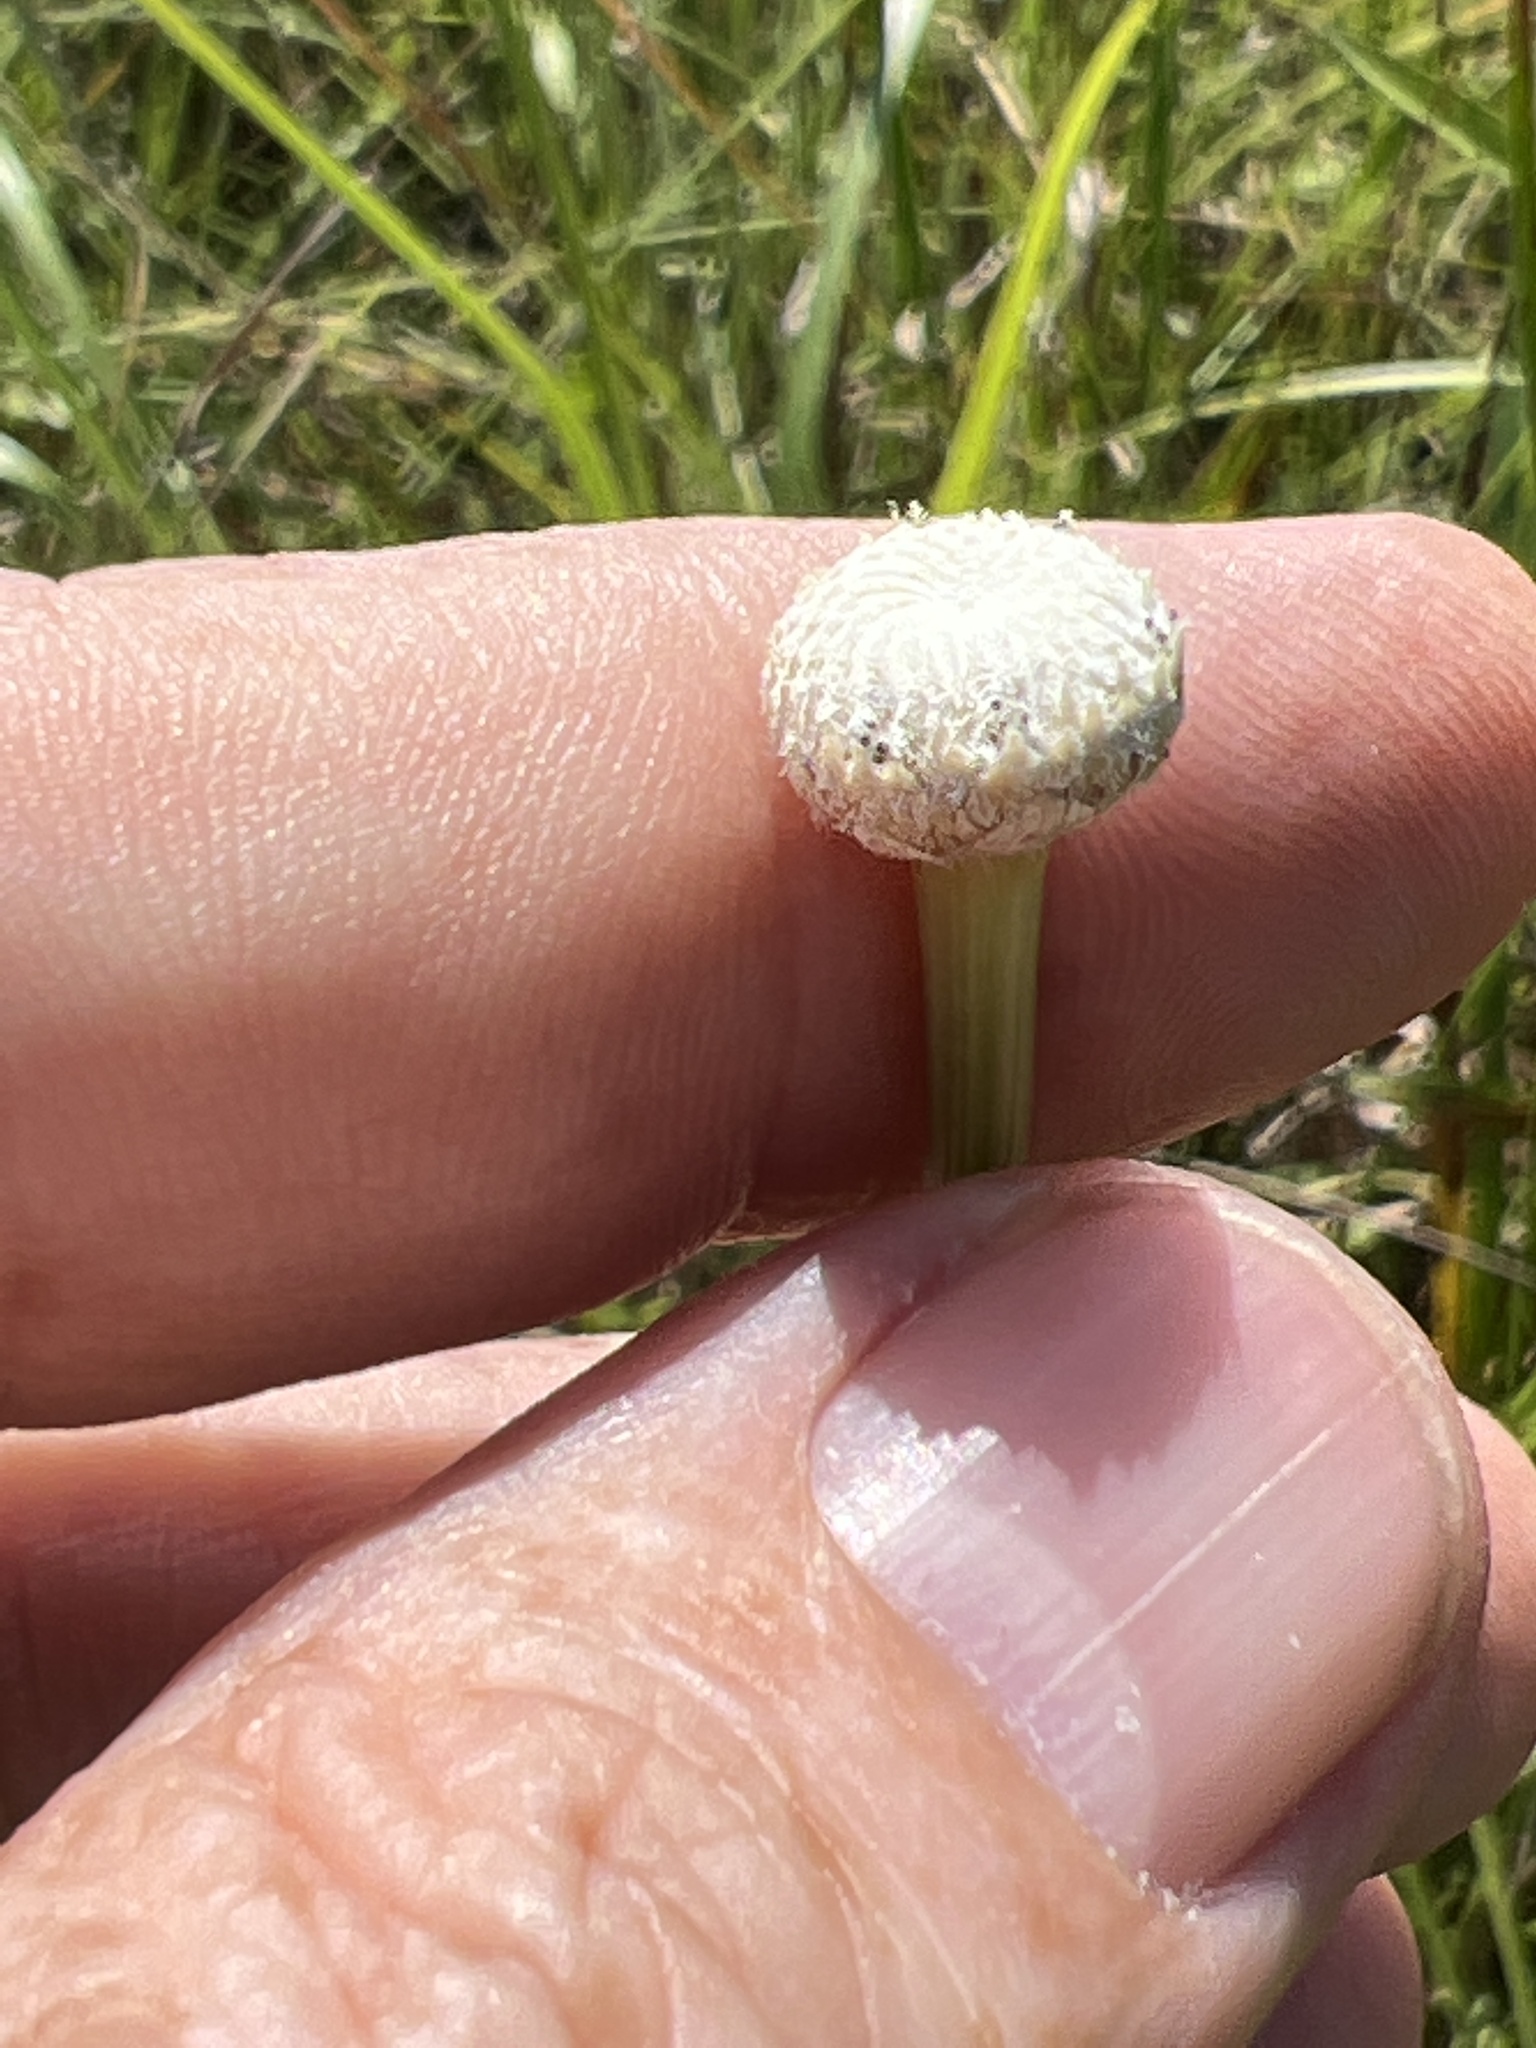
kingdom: Plantae
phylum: Tracheophyta
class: Liliopsida
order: Poales
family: Eriocaulaceae
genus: Eriocaulon
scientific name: Eriocaulon decangulare
